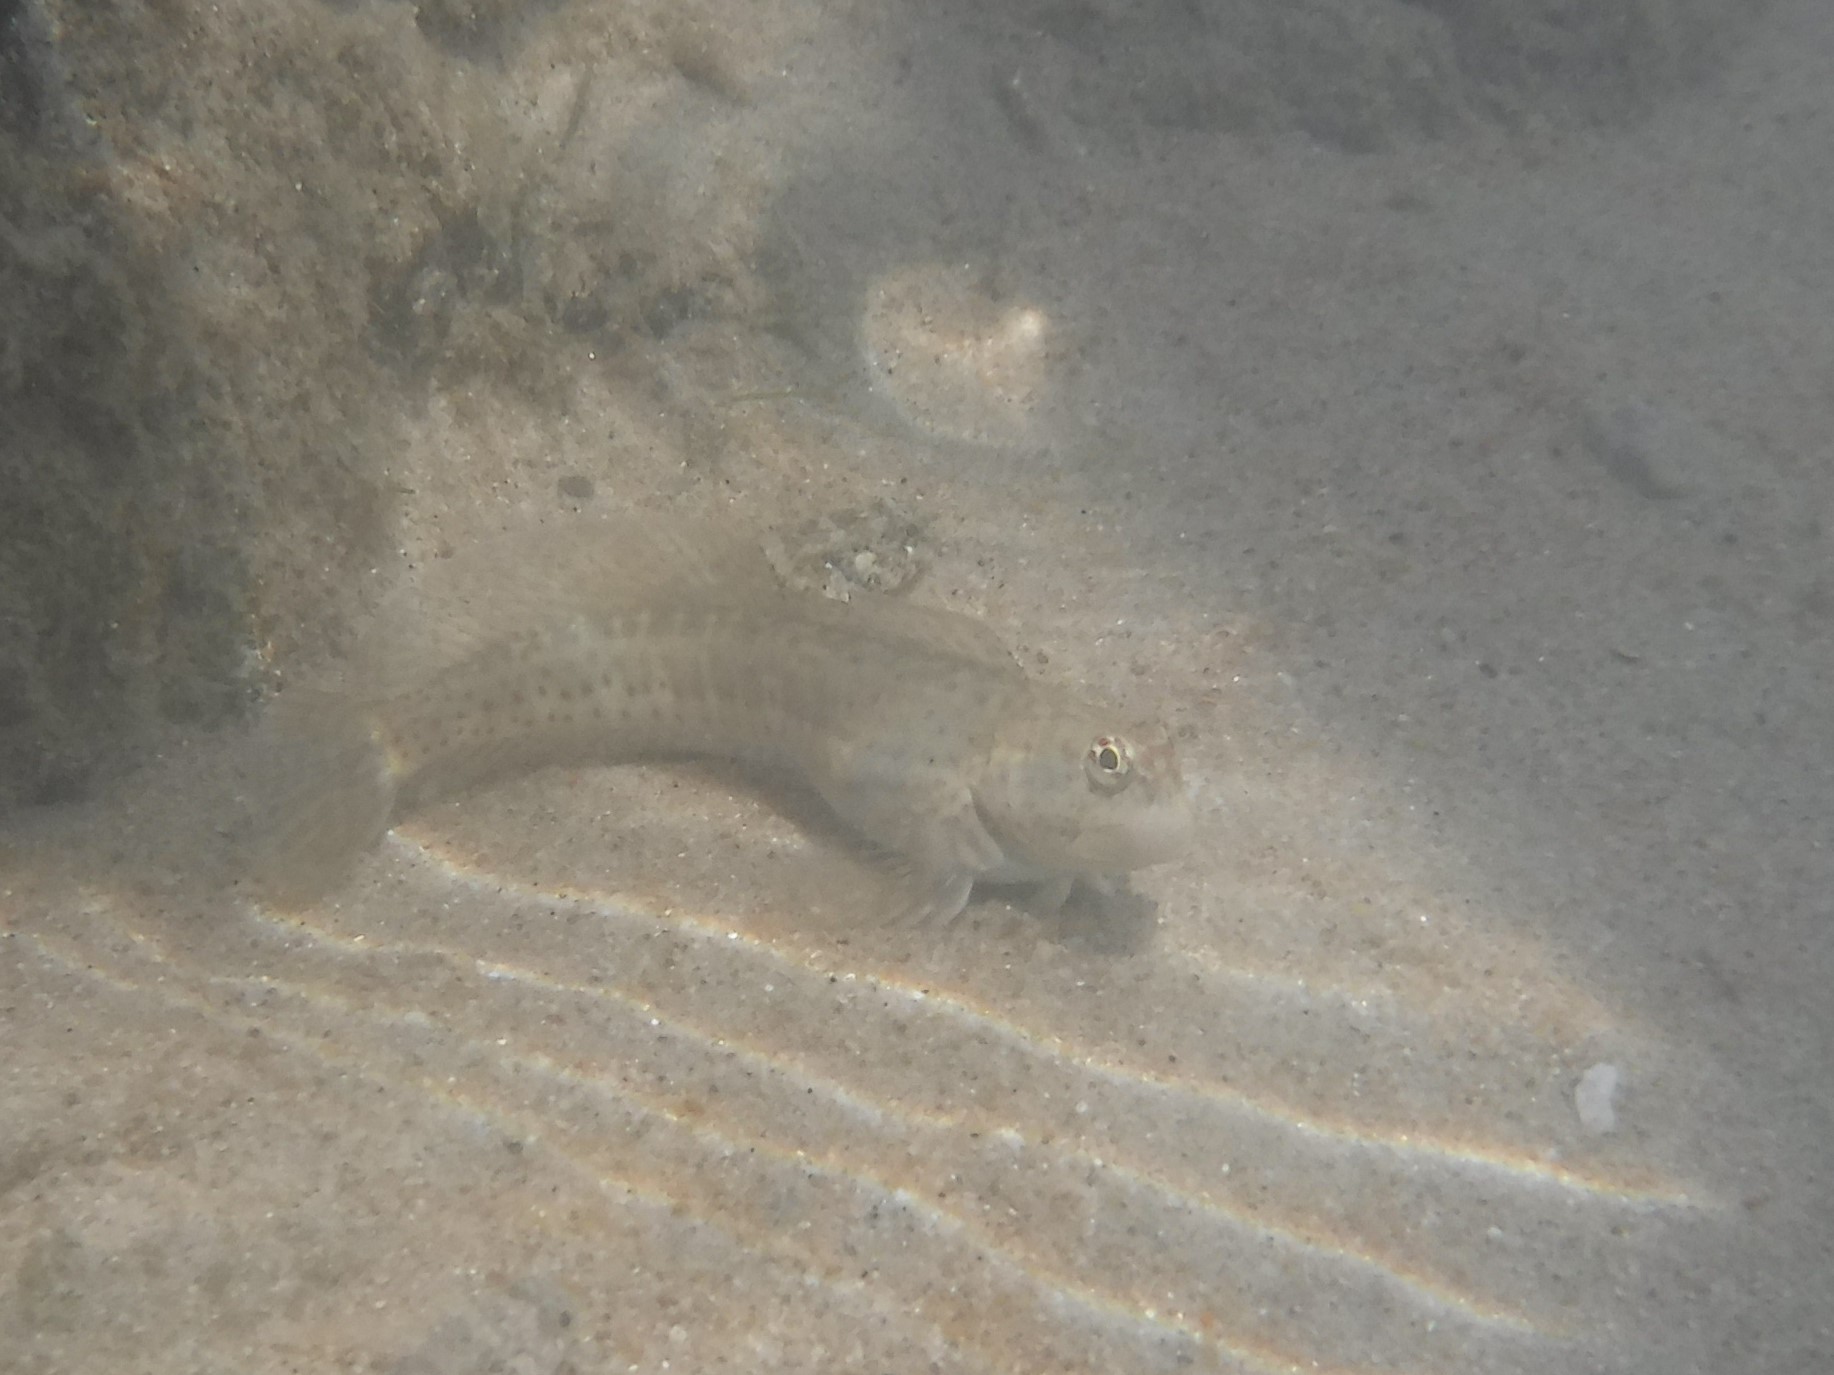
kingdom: Animalia
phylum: Chordata
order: Perciformes
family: Blenniidae
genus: Istiblennius
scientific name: Istiblennius dussumieri
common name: Dussumier's rockskipper
